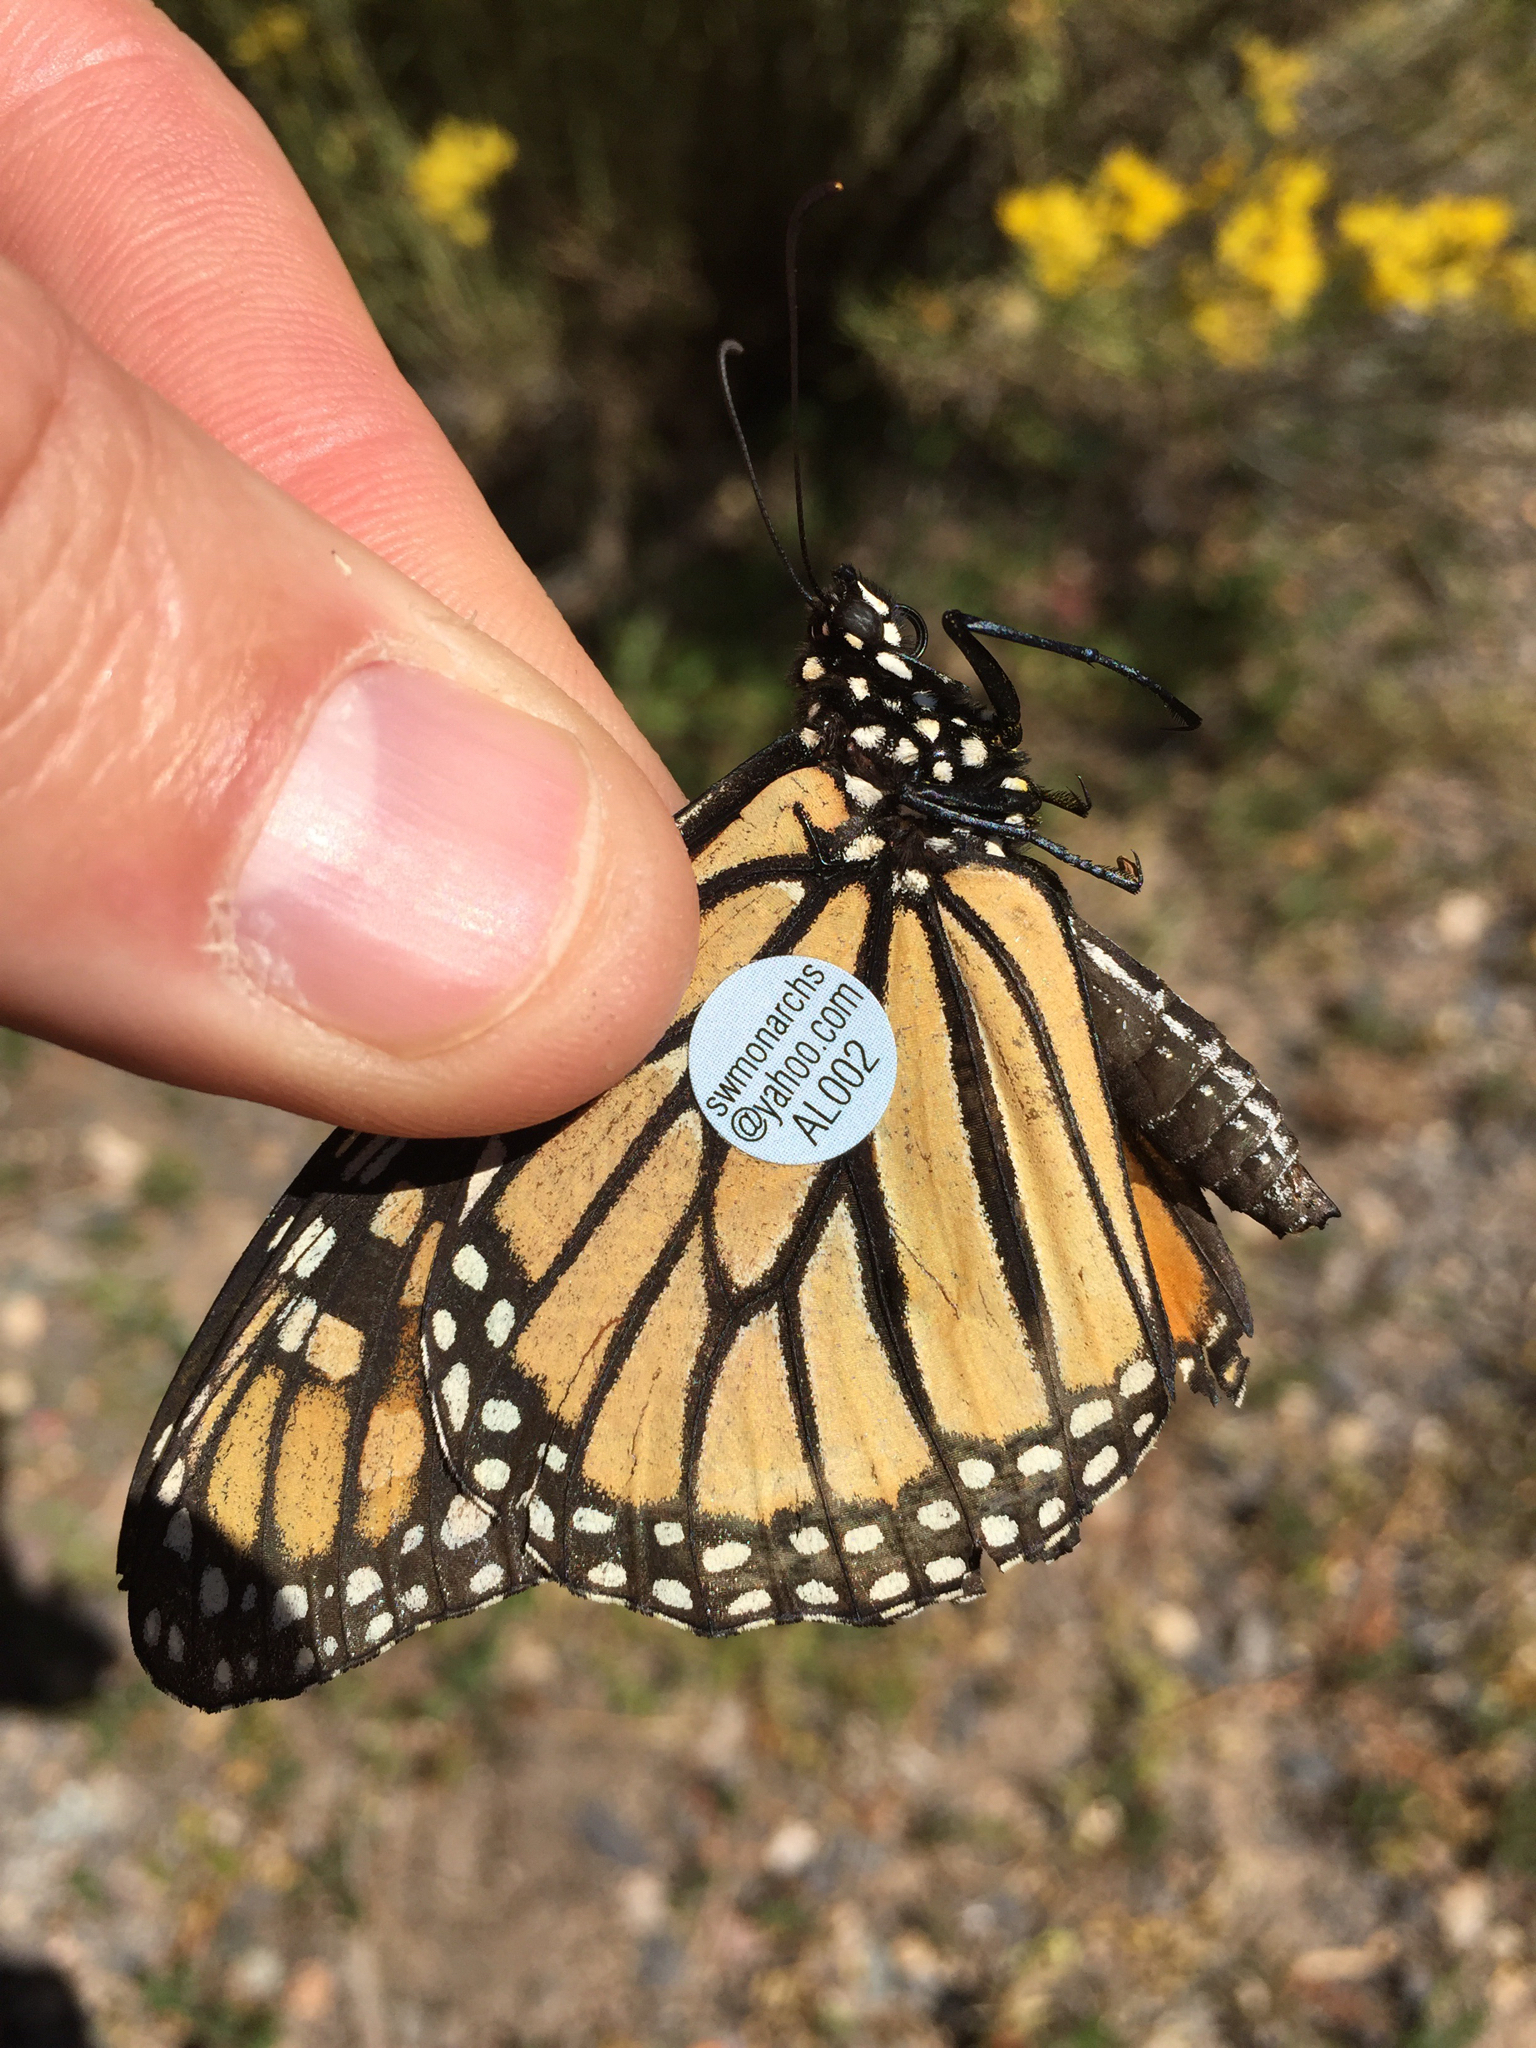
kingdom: Animalia
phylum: Arthropoda
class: Insecta
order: Lepidoptera
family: Nymphalidae
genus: Danaus
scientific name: Danaus plexippus
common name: Monarch
